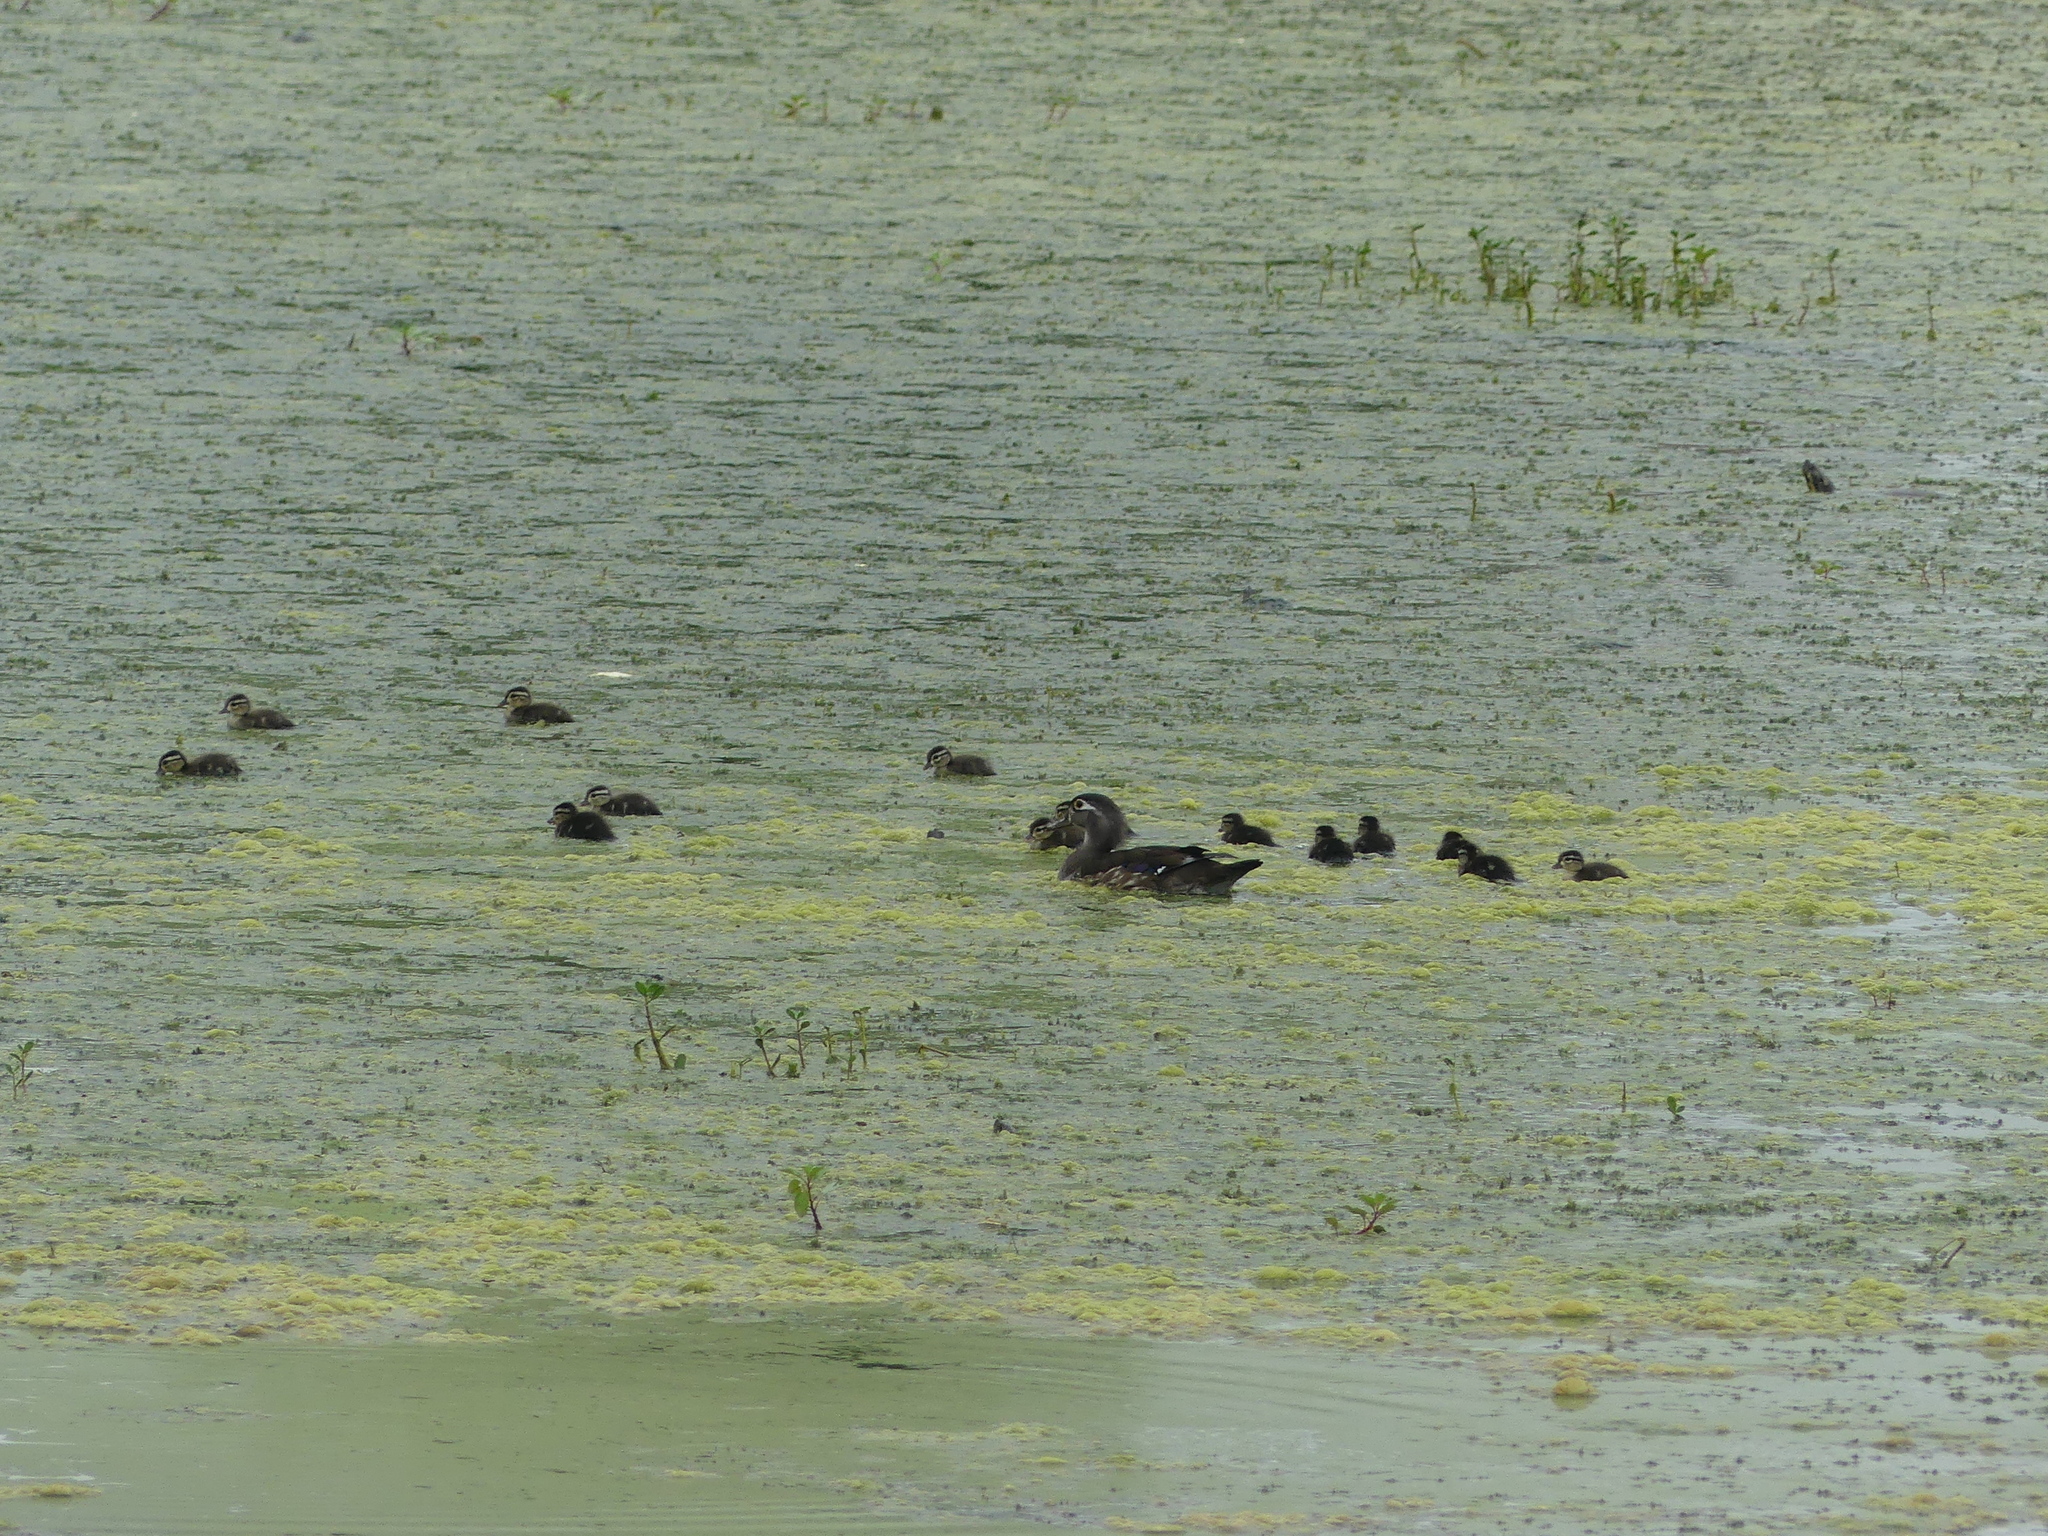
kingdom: Animalia
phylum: Chordata
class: Aves
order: Anseriformes
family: Anatidae
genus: Aix
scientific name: Aix sponsa
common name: Wood duck
